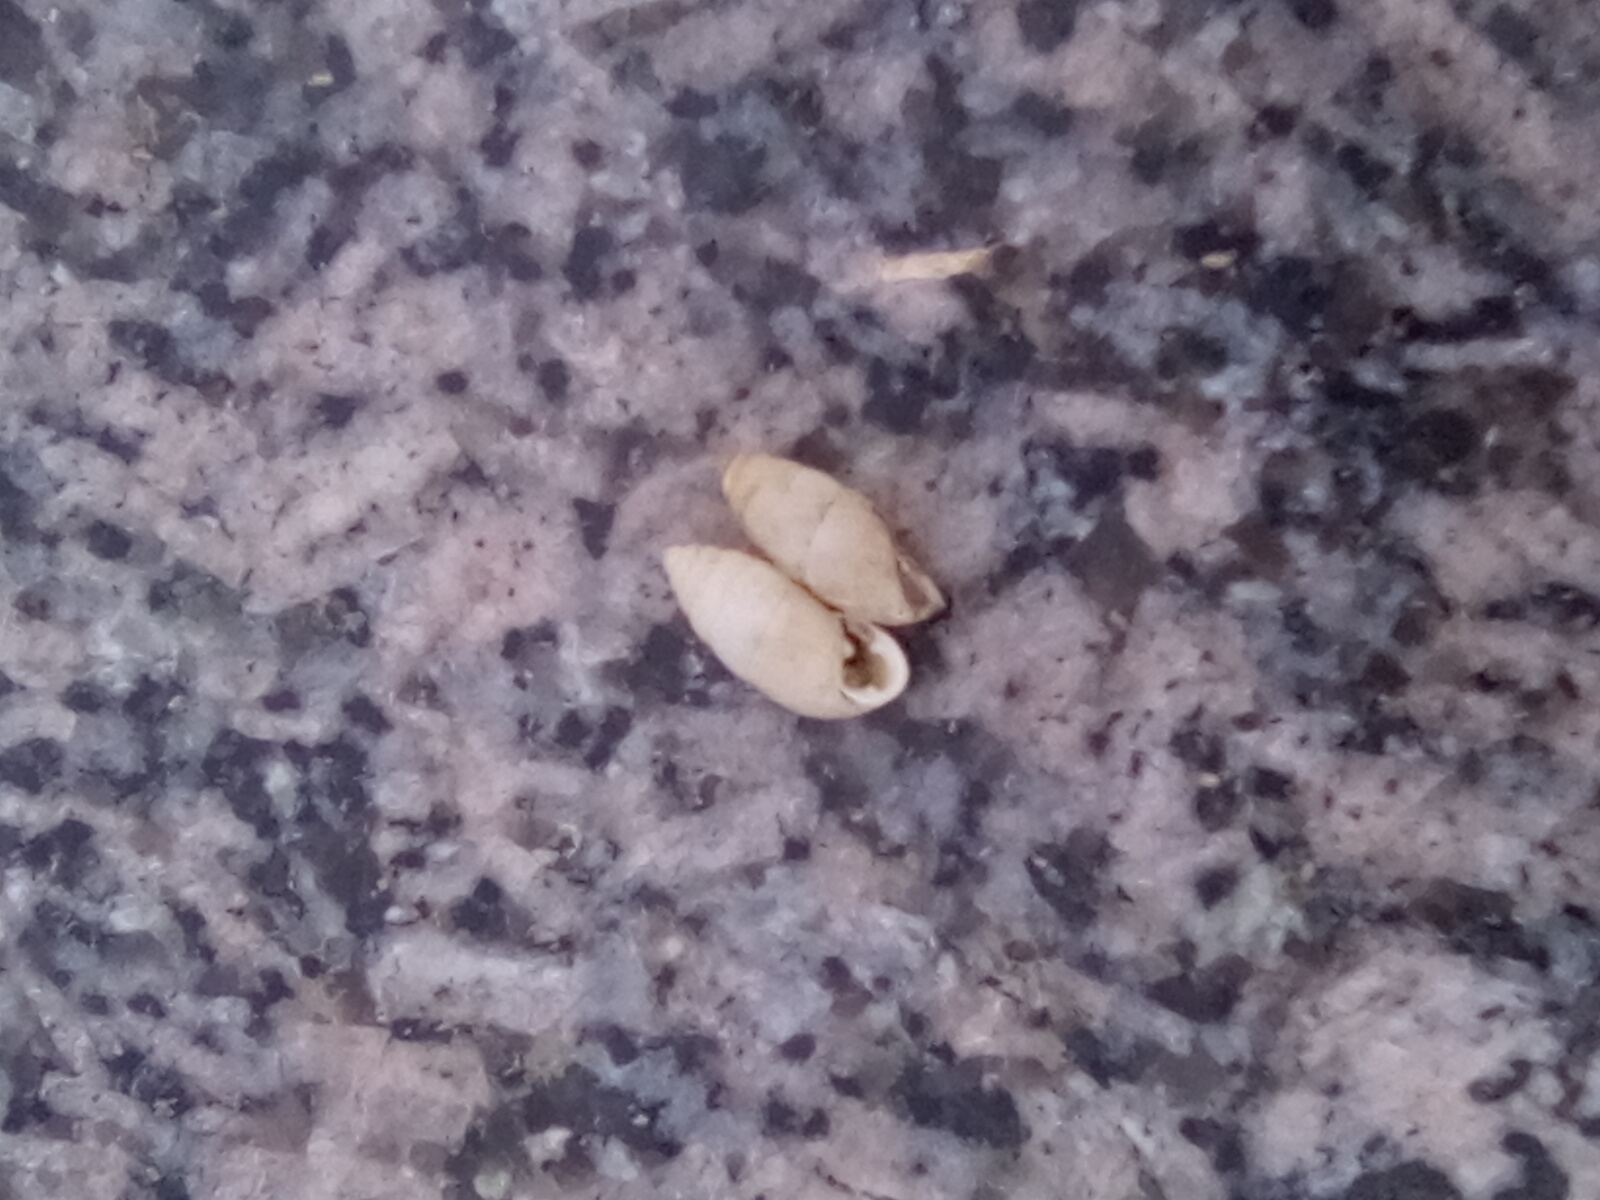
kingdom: Animalia
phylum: Mollusca
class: Gastropoda
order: Stylommatophora
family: Enidae
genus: Chondrula
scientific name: Chondrula tridens
